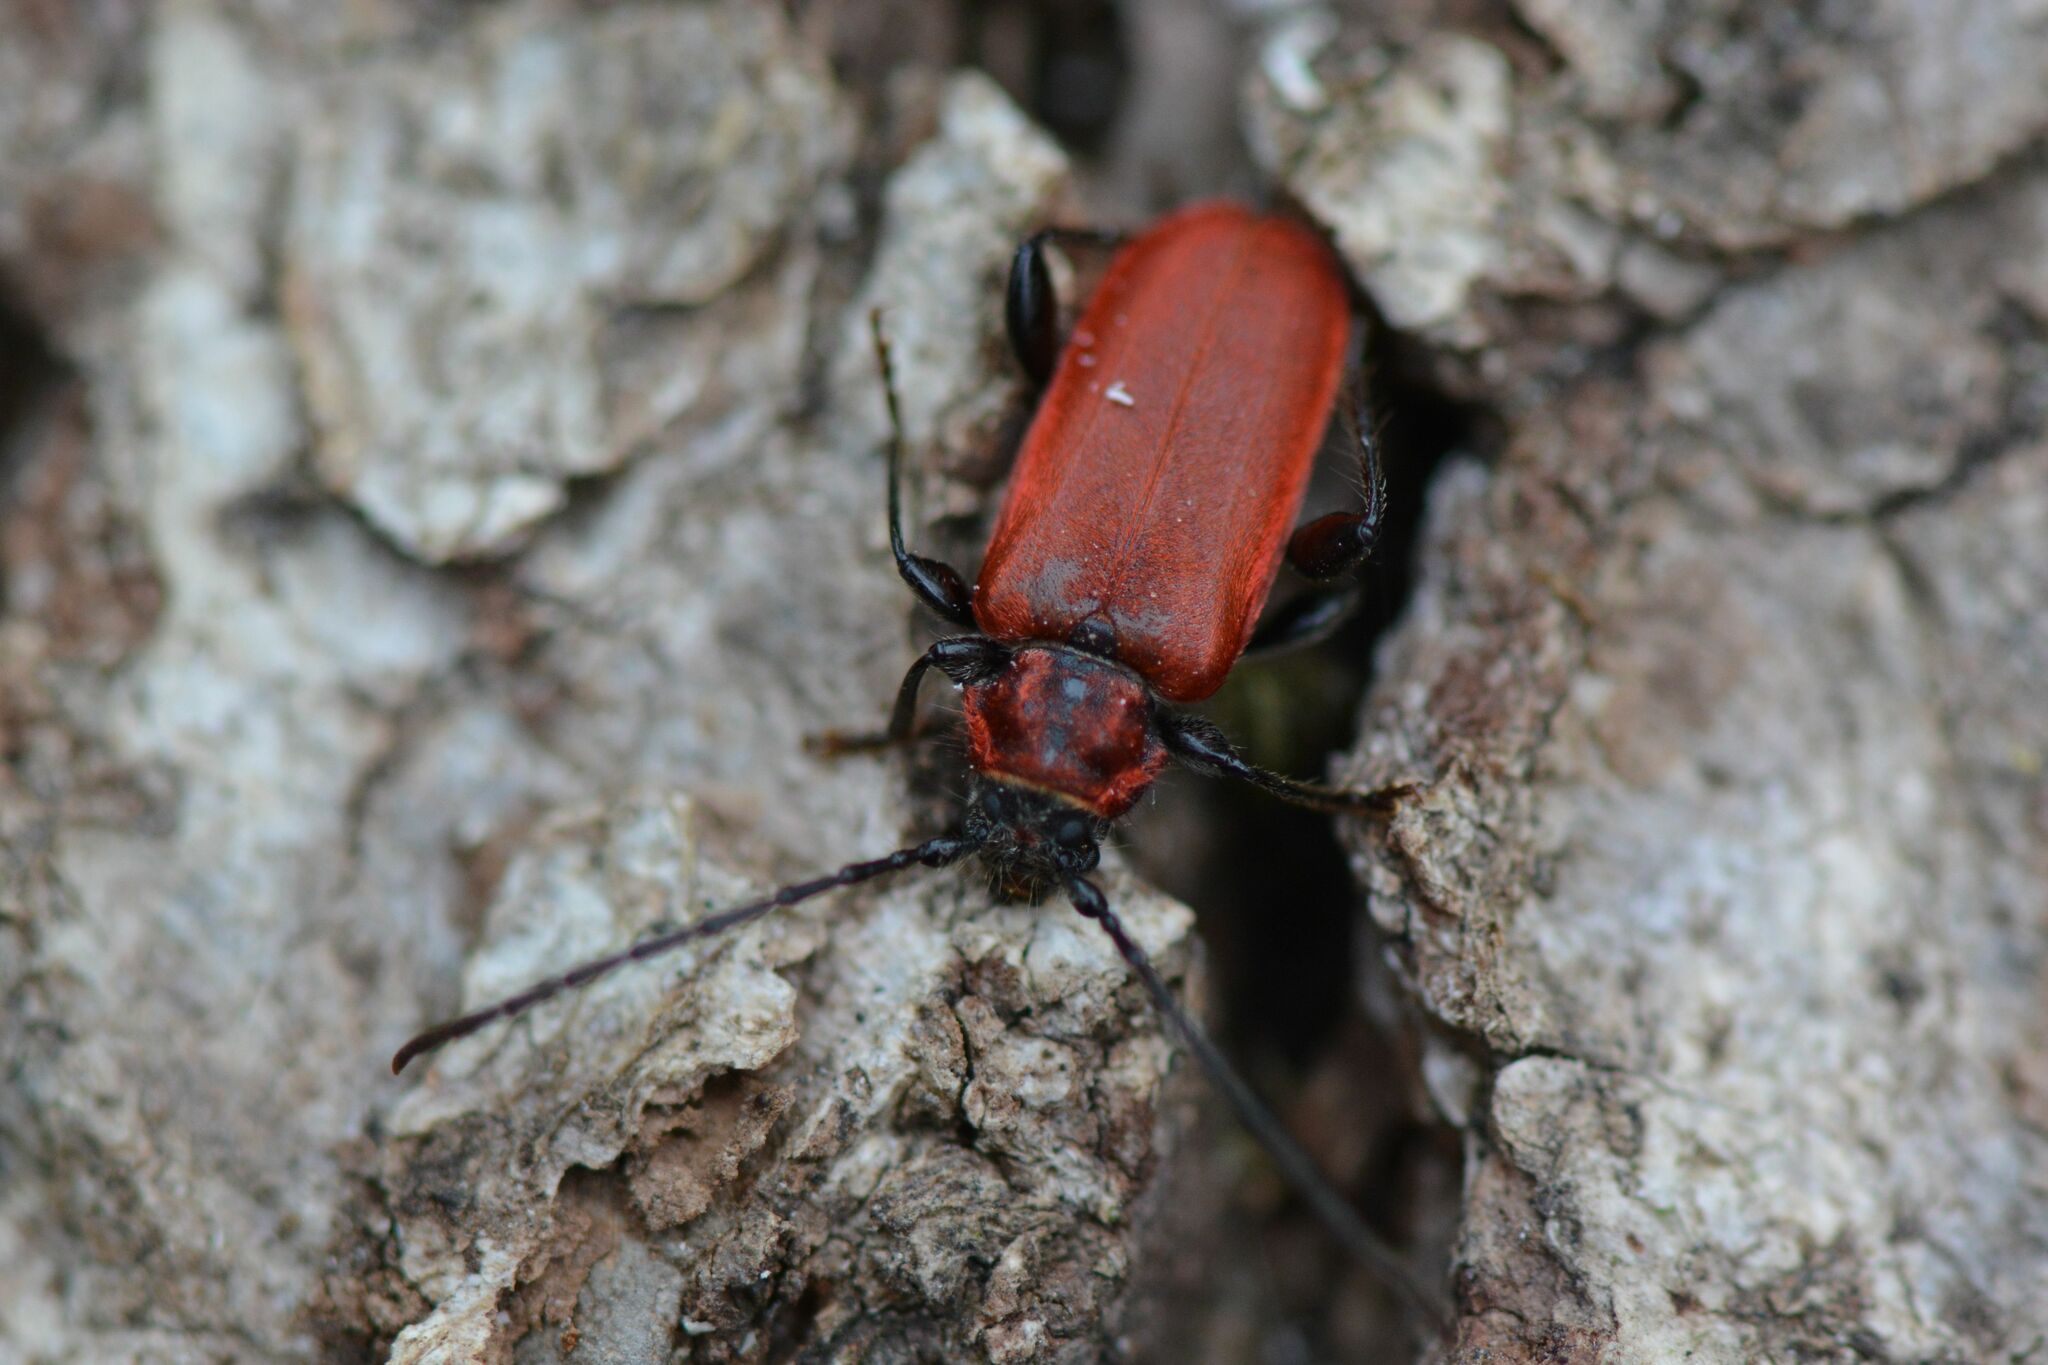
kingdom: Animalia
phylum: Arthropoda
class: Insecta
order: Coleoptera
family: Cerambycidae
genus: Pyrrhidium
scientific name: Pyrrhidium sanguineum
